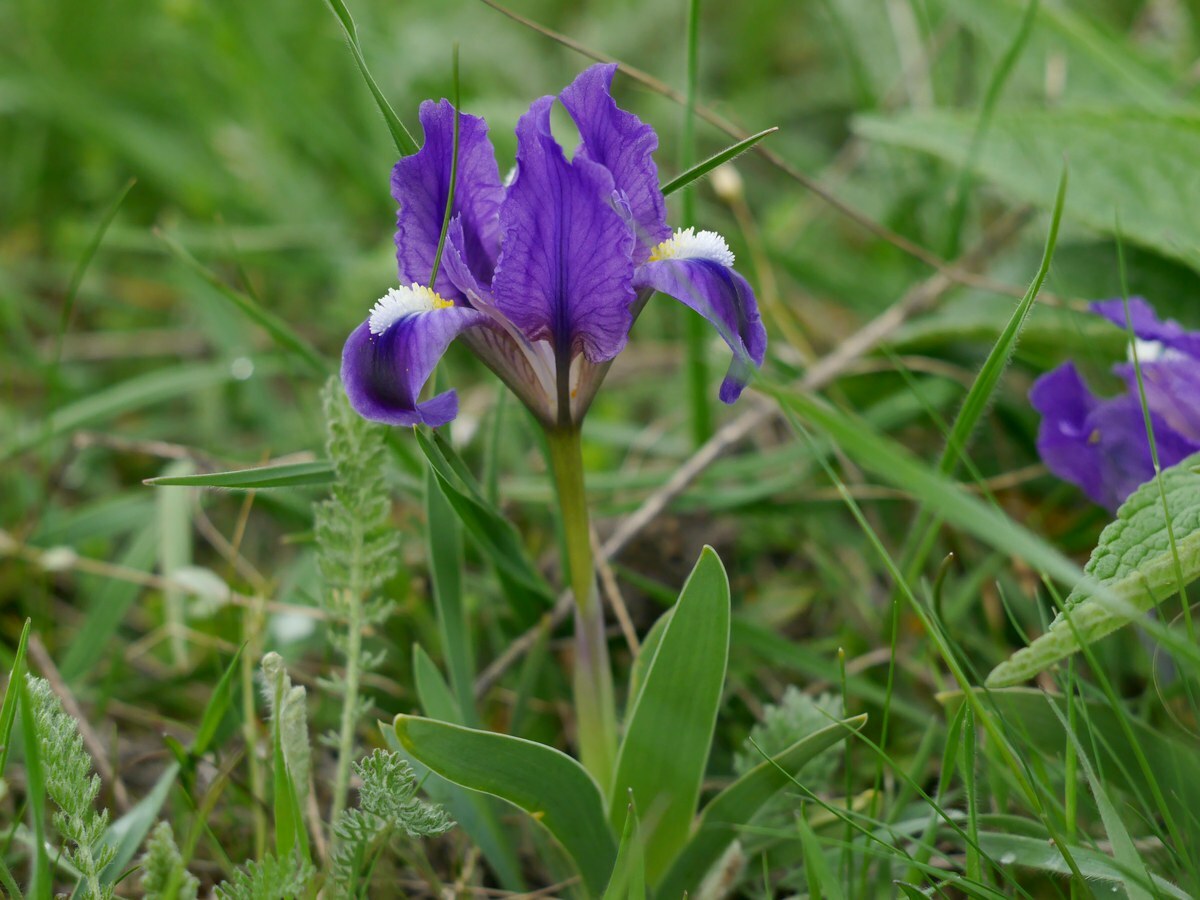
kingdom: Plantae
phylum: Tracheophyta
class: Liliopsida
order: Asparagales
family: Iridaceae
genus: Iris
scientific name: Iris pumila
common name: Dwarf iris
